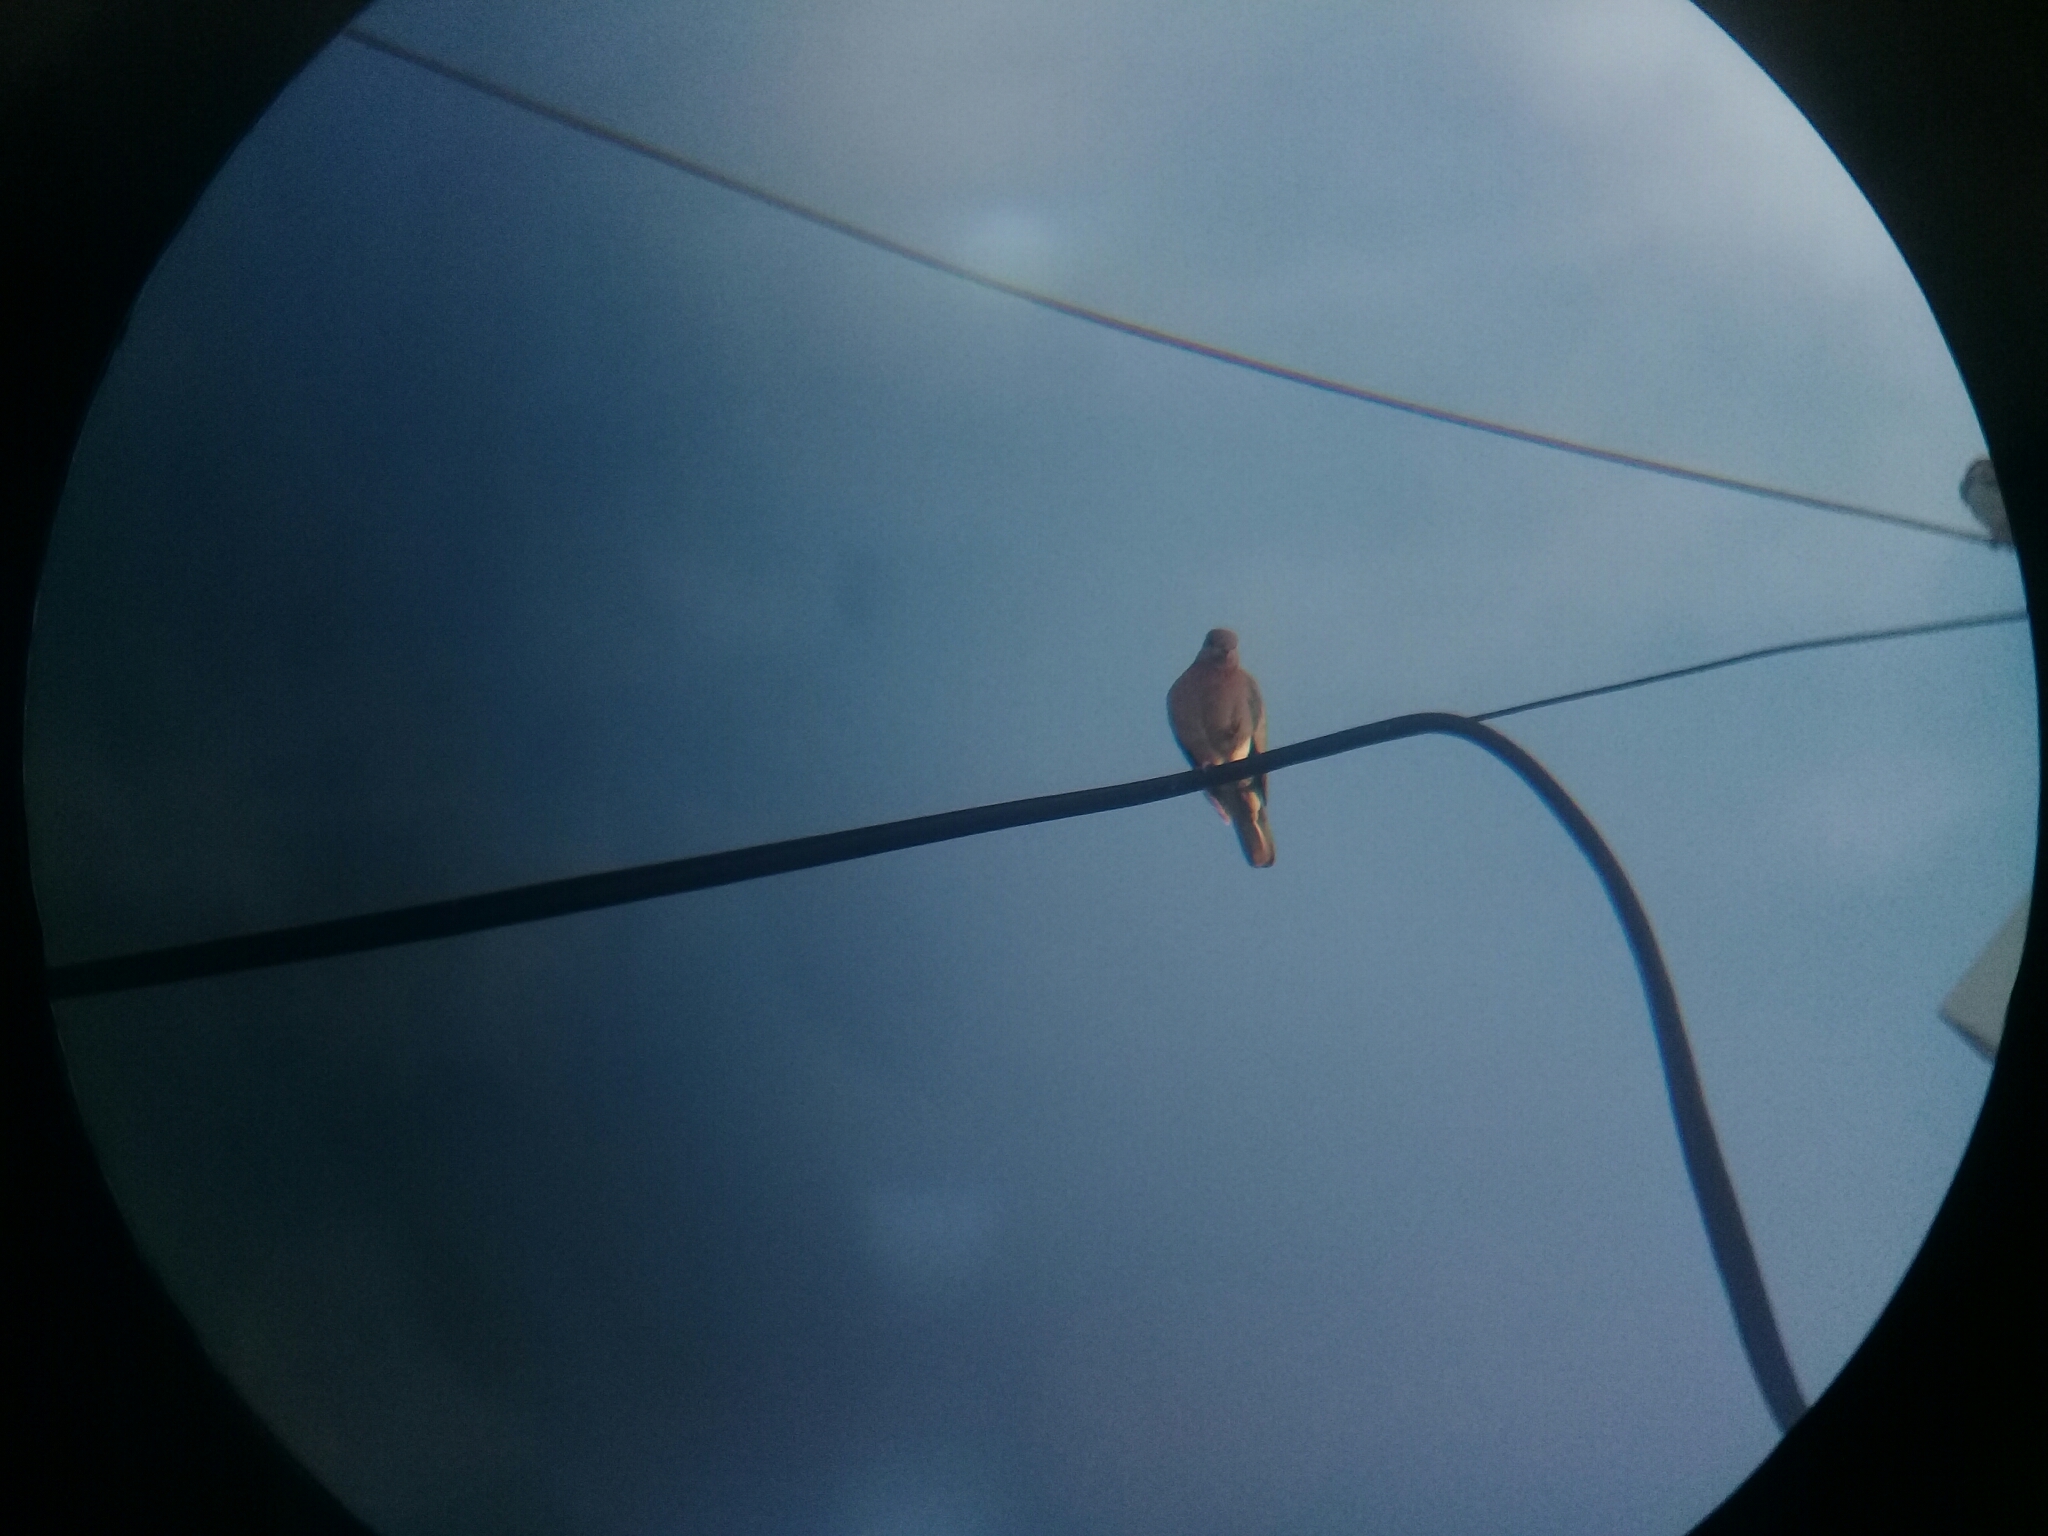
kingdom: Animalia
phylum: Chordata
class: Aves
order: Columbiformes
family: Columbidae
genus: Spilopelia
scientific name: Spilopelia senegalensis
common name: Laughing dove
